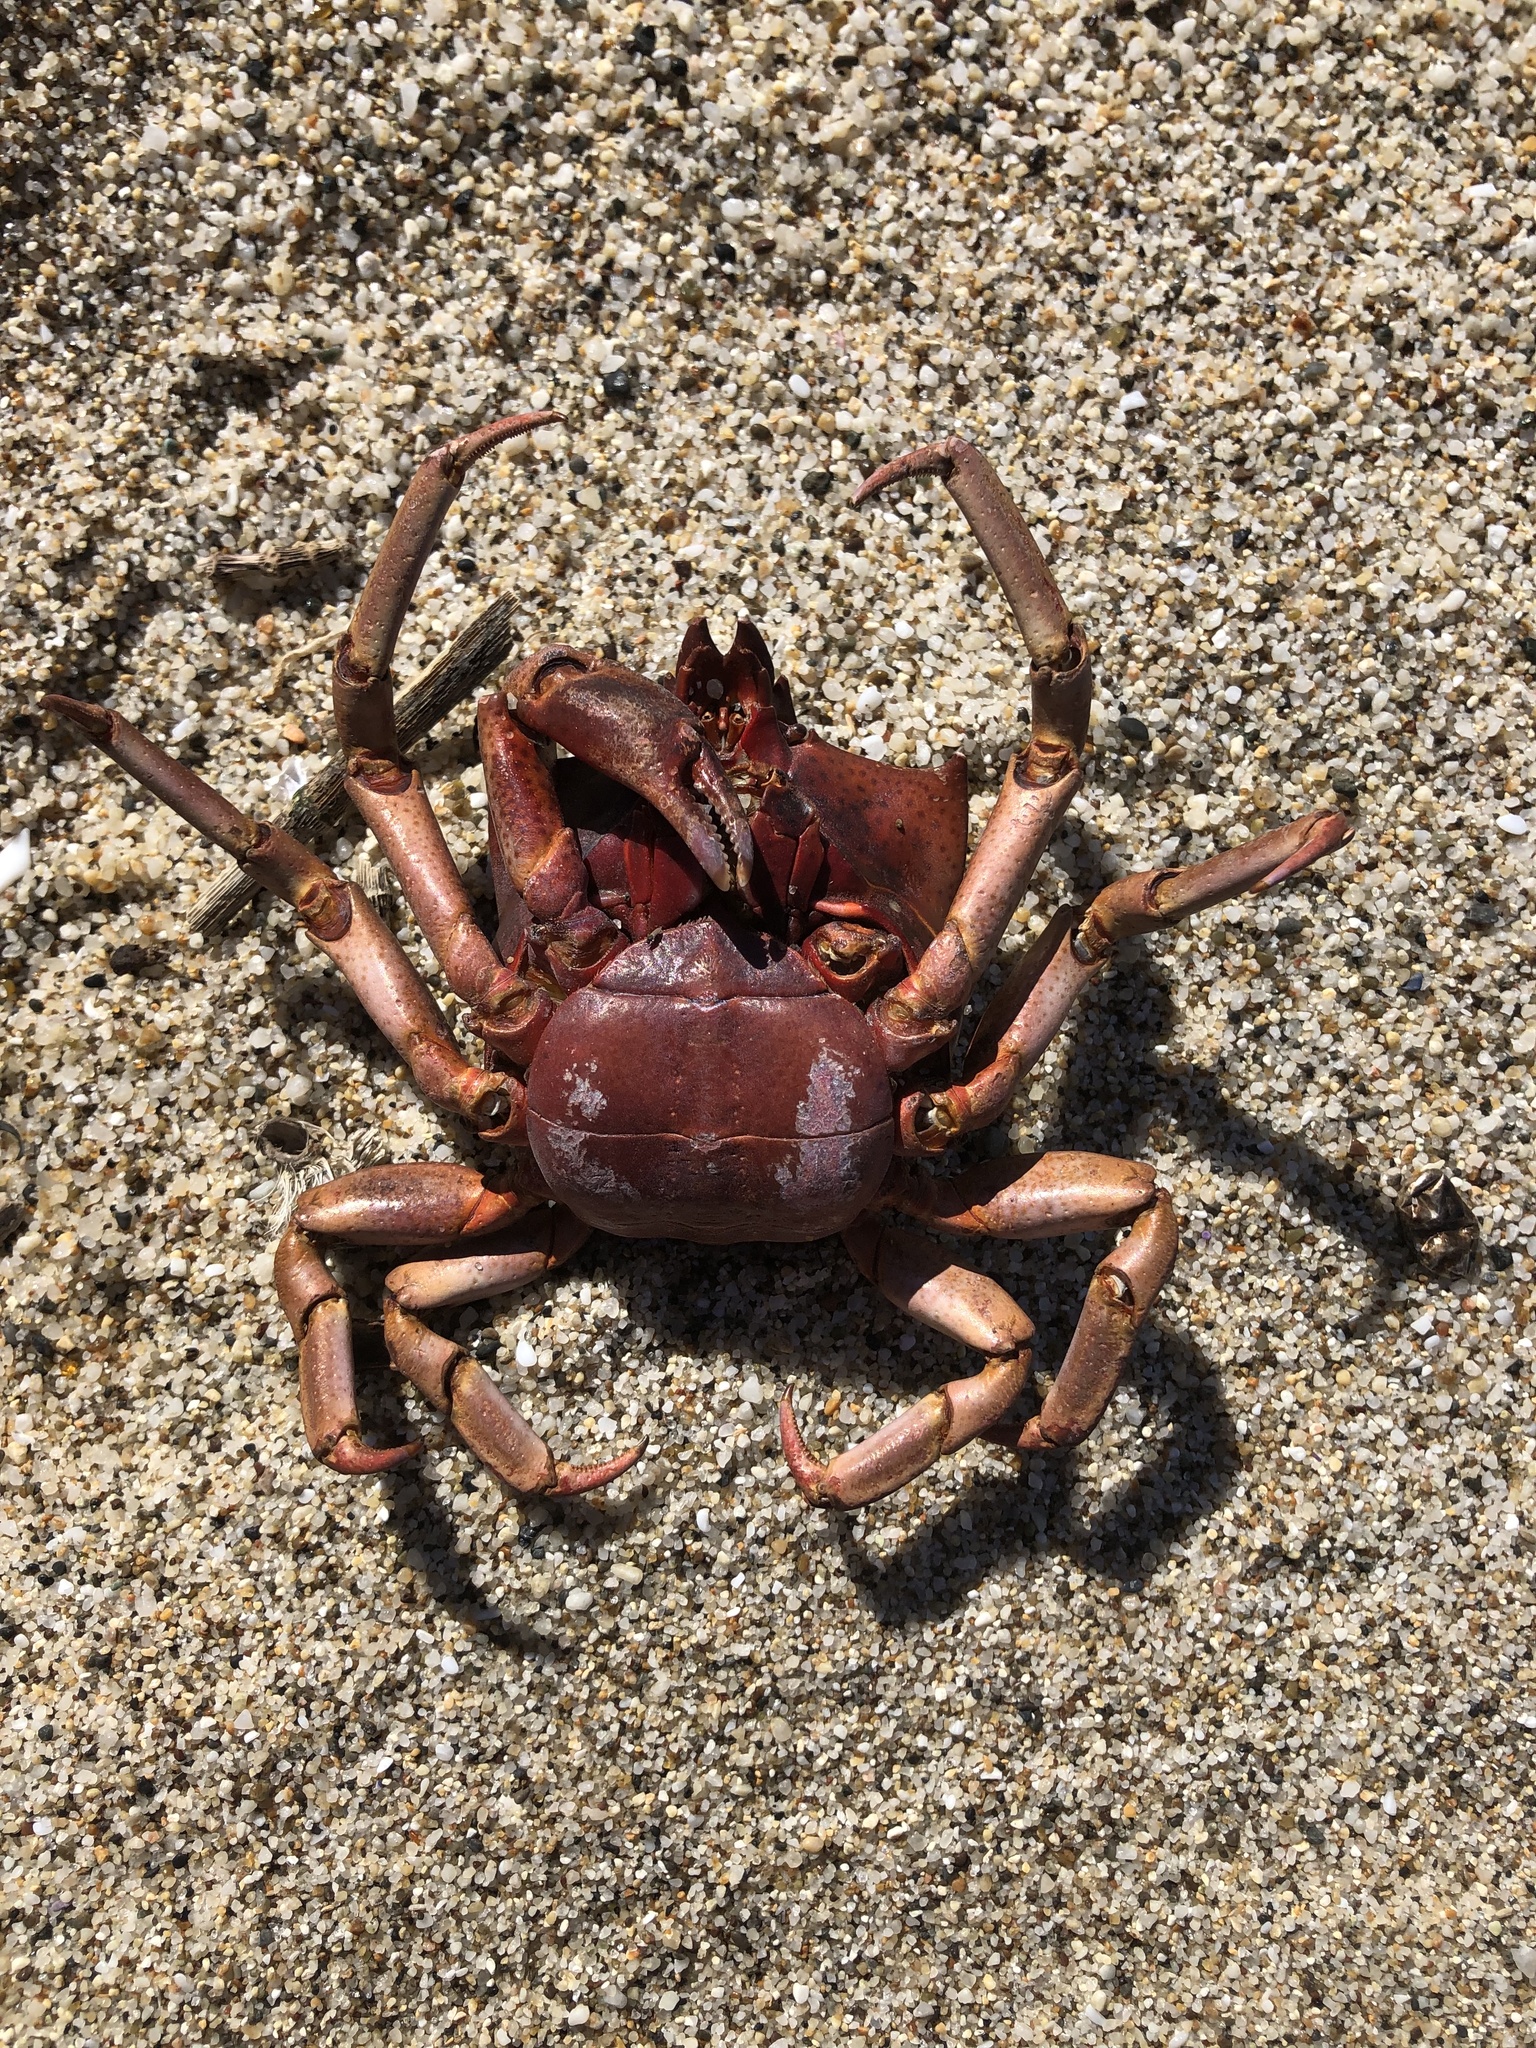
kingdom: Animalia
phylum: Arthropoda
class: Malacostraca
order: Decapoda
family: Epialtidae
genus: Pugettia
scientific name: Pugettia producta
